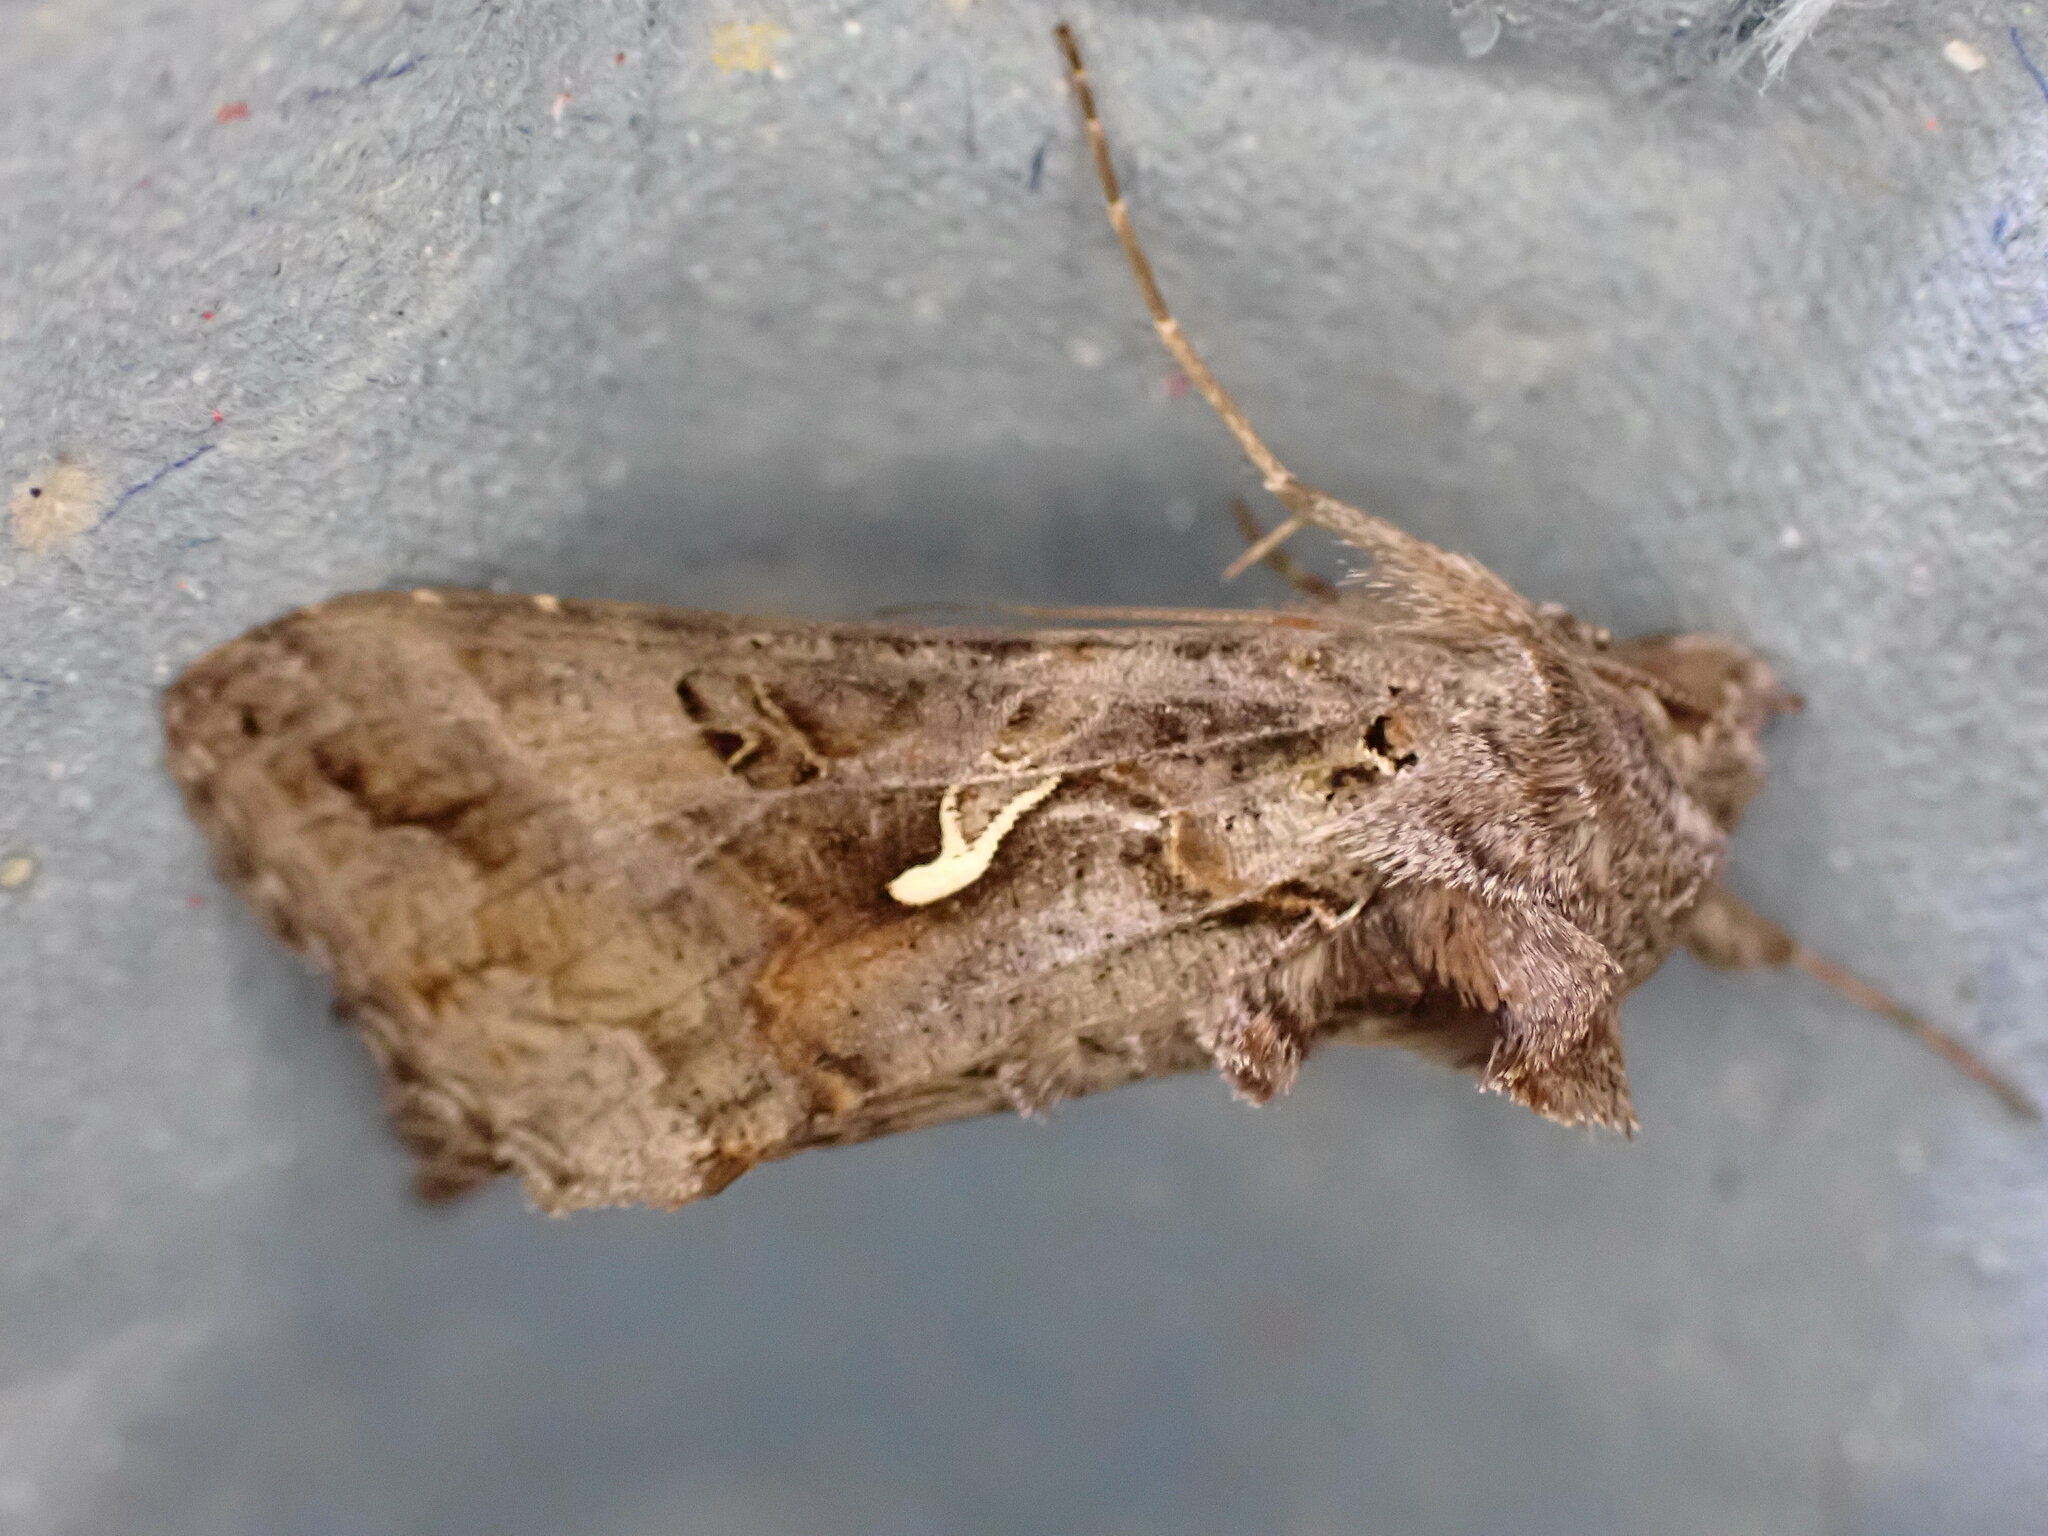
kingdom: Animalia
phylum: Arthropoda
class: Insecta
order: Lepidoptera
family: Noctuidae
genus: Autographa
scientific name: Autographa gamma
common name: Silver y
